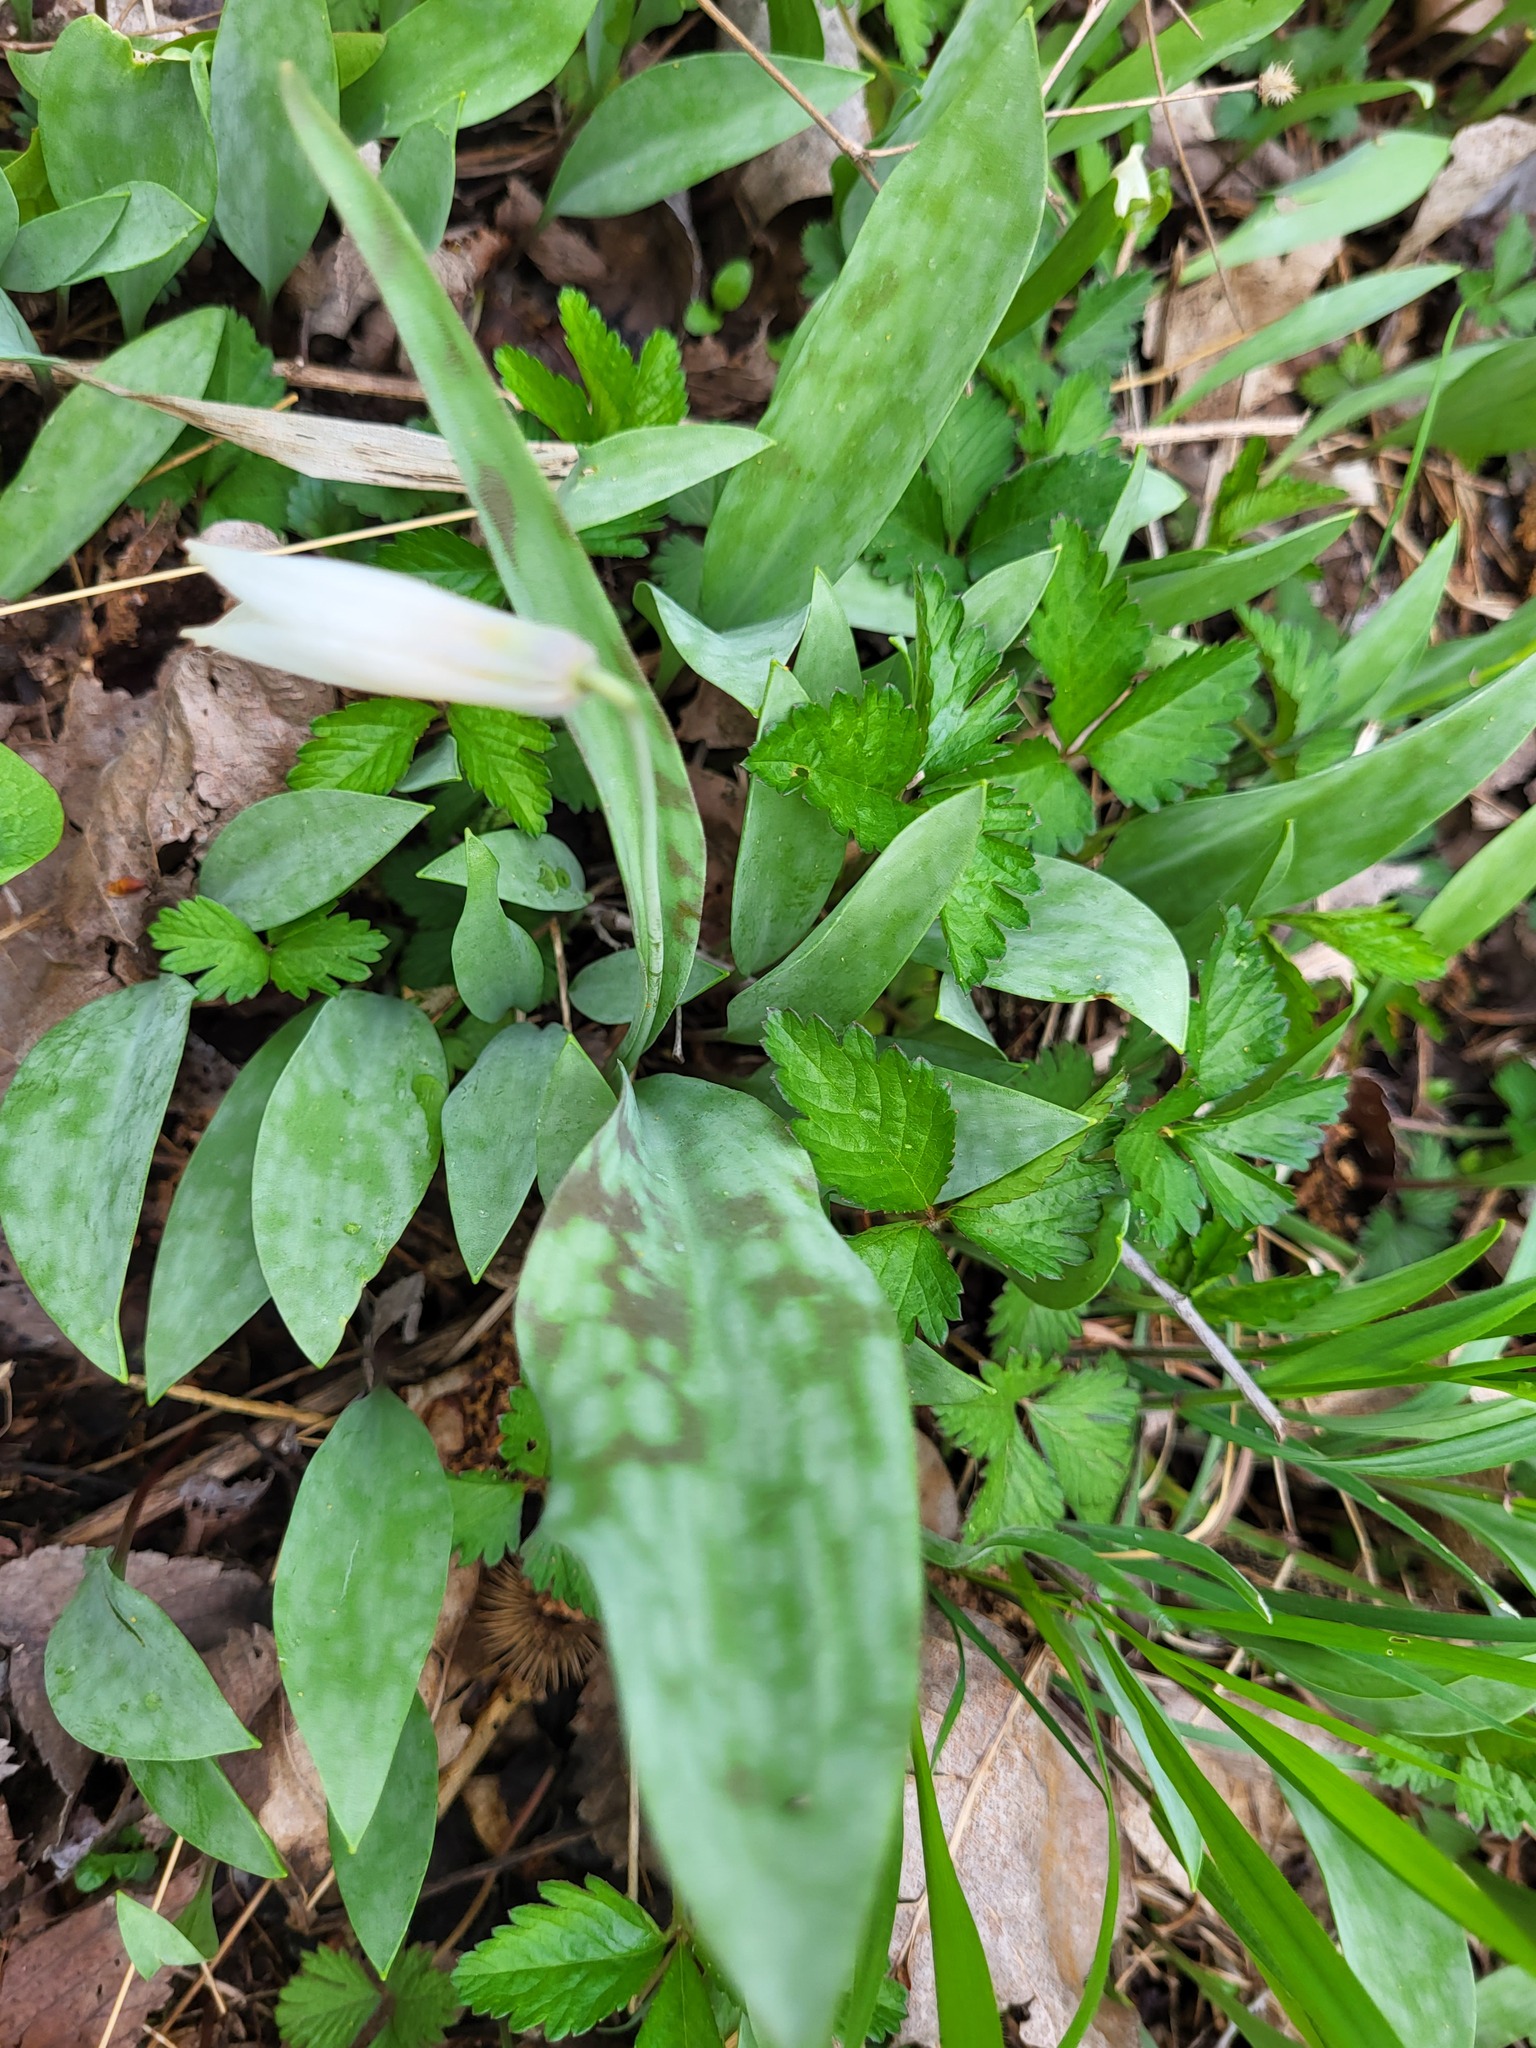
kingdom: Plantae
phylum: Tracheophyta
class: Liliopsida
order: Liliales
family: Liliaceae
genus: Erythronium
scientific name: Erythronium albidum
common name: White trout-lily
